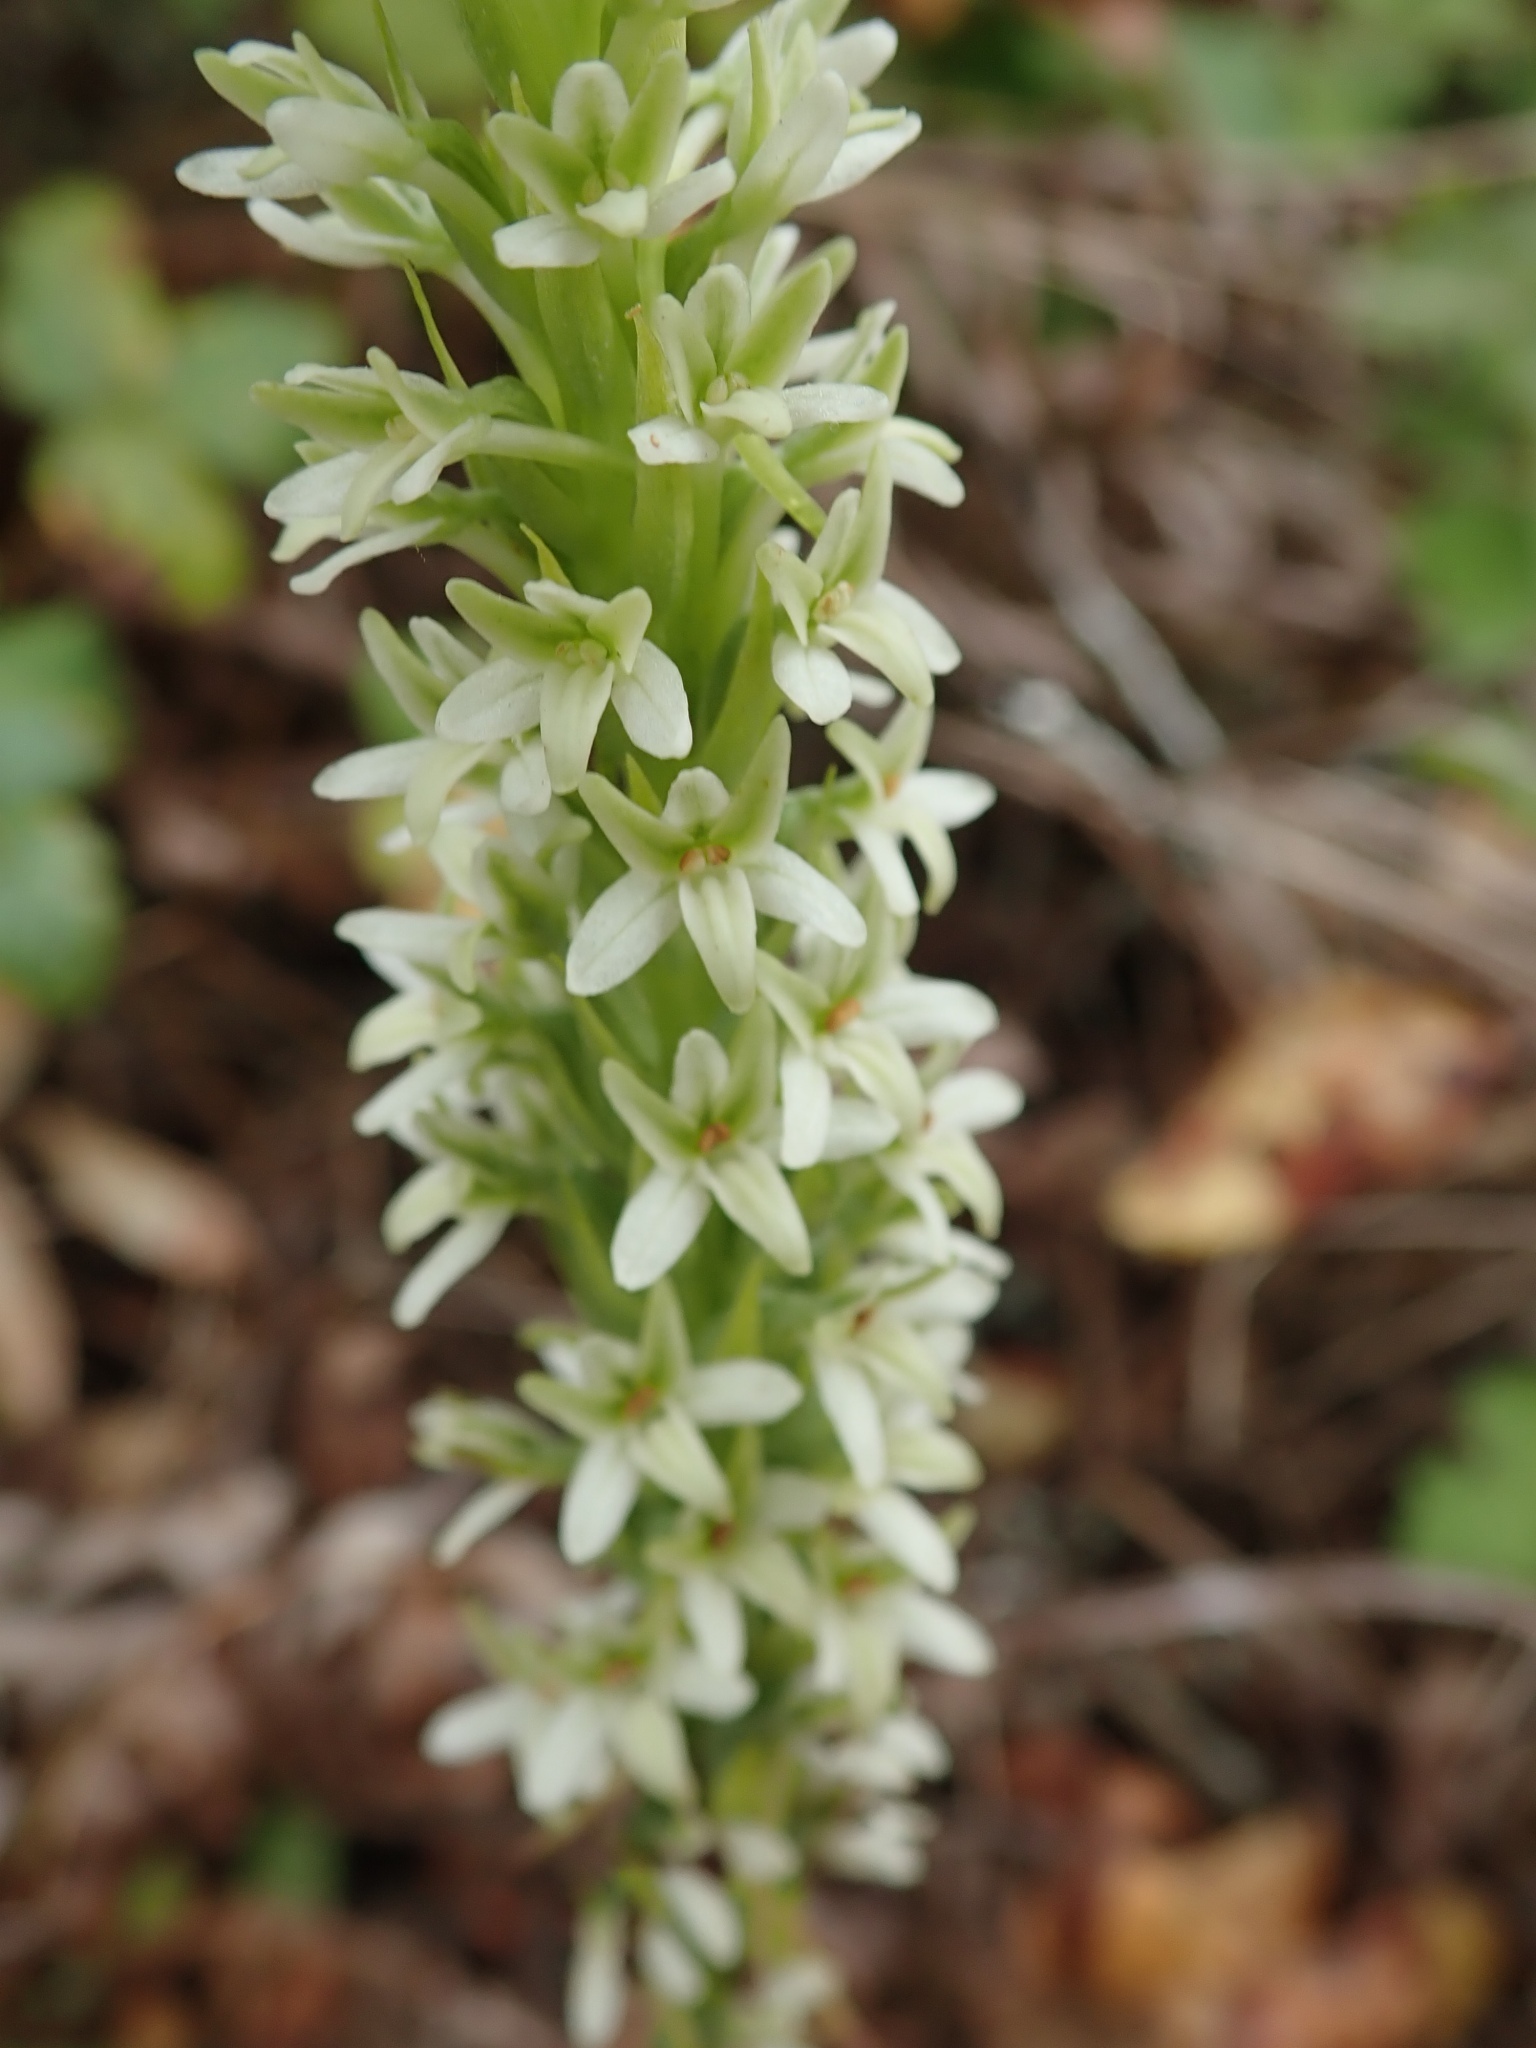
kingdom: Plantae
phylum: Tracheophyta
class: Liliopsida
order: Asparagales
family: Orchidaceae
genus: Platanthera
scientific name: Platanthera elegans
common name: Coast piperia
